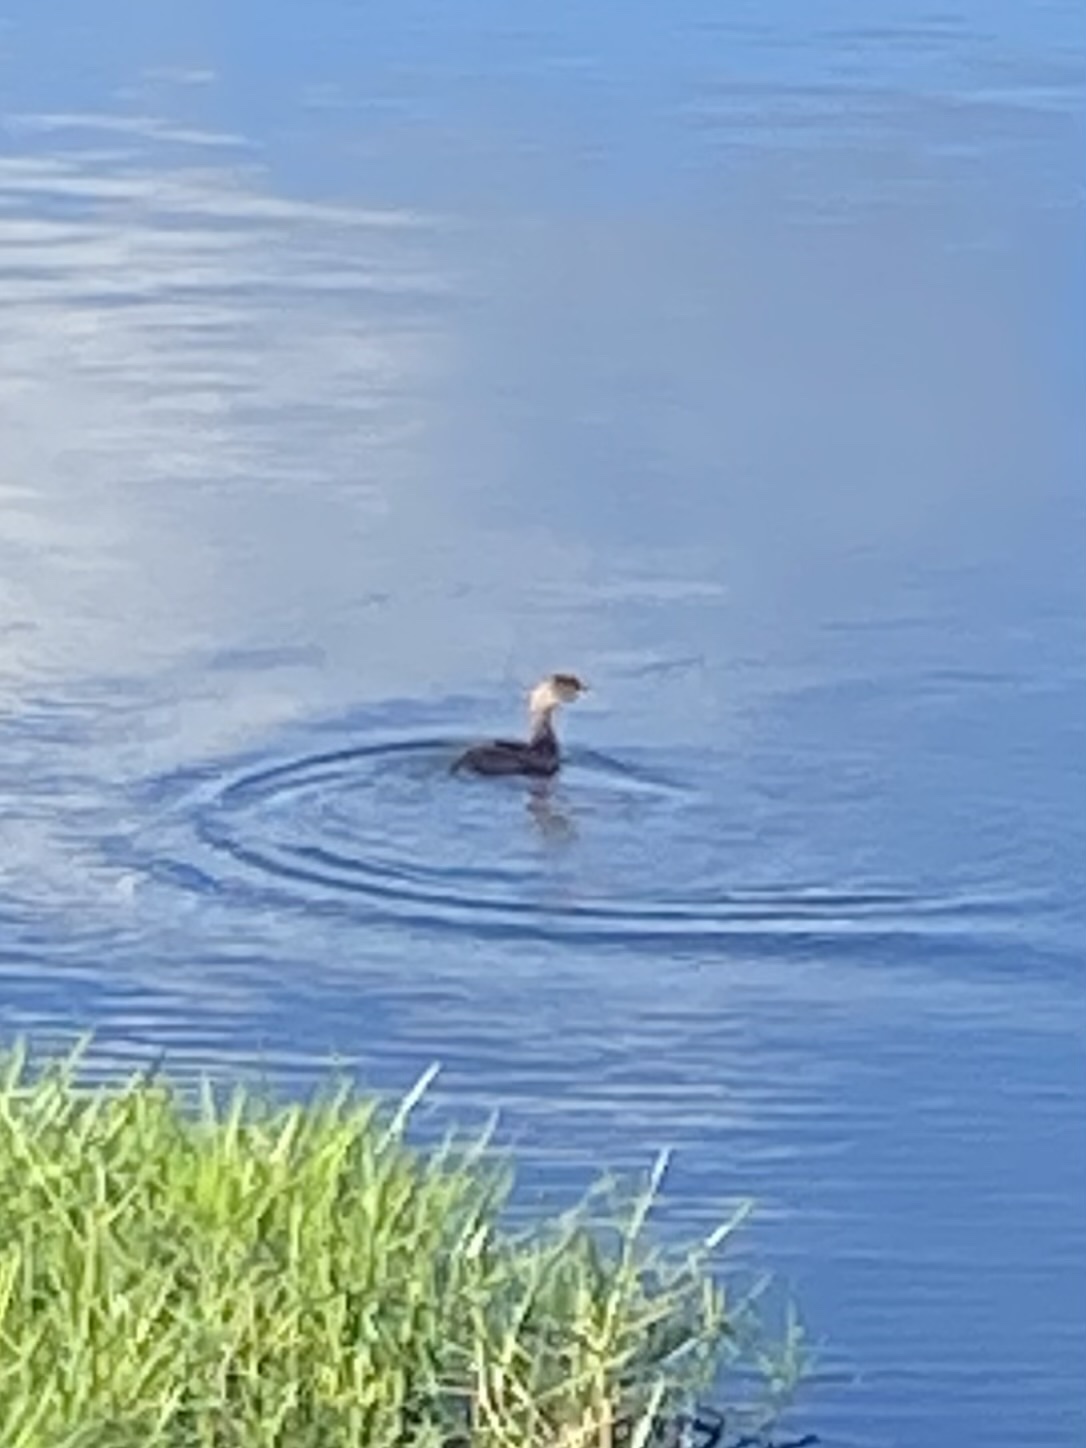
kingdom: Animalia
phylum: Chordata
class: Aves
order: Podicipediformes
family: Podicipedidae
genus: Podilymbus
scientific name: Podilymbus podiceps
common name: Pied-billed grebe
